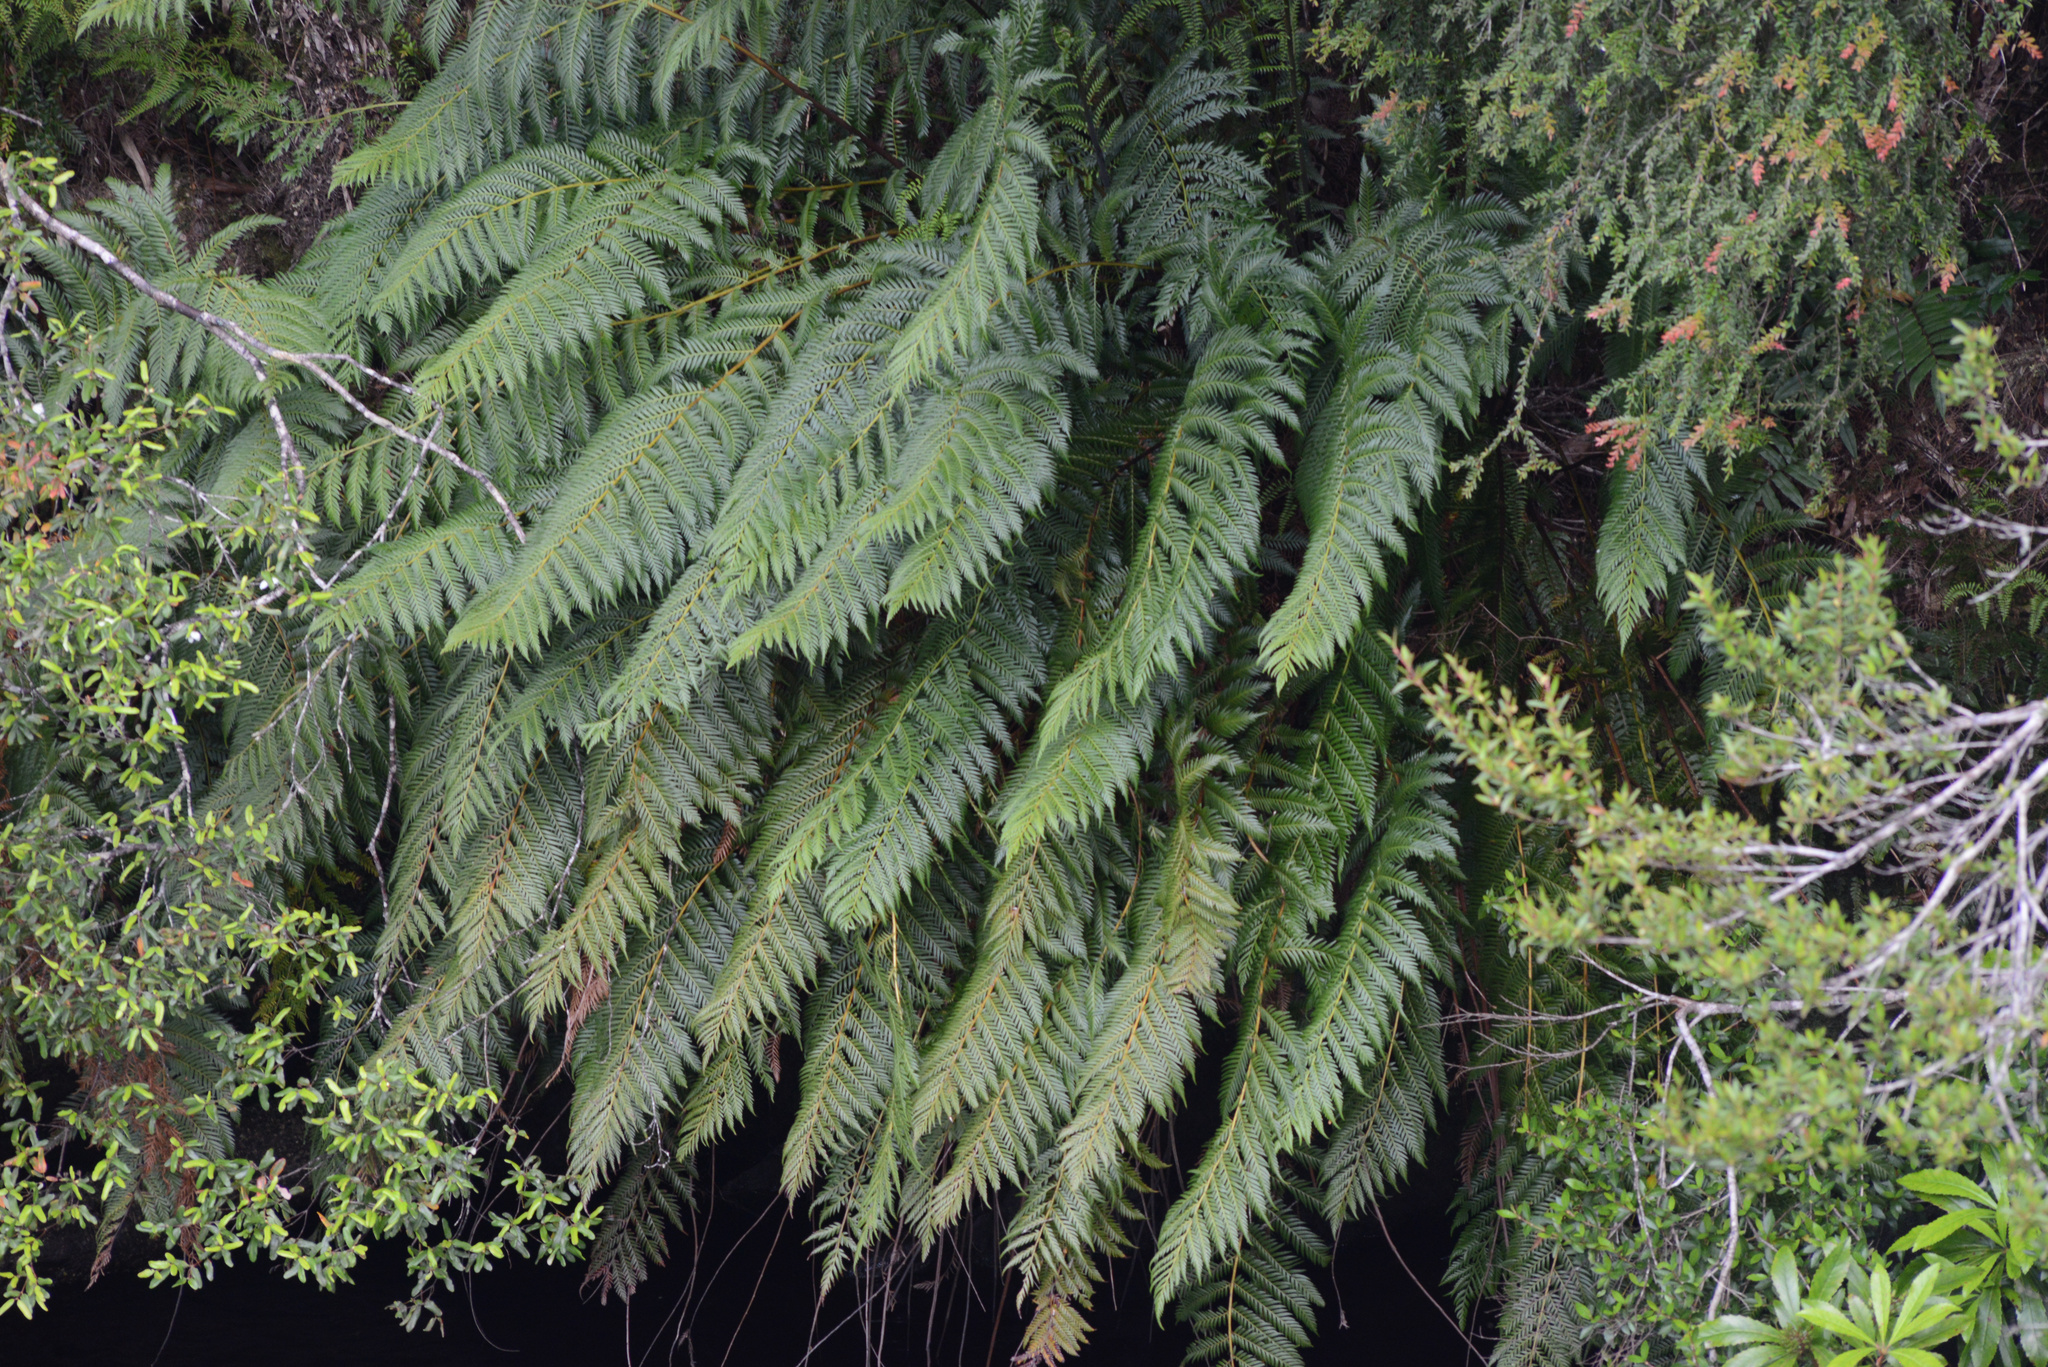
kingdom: Plantae
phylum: Tracheophyta
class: Polypodiopsida
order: Osmundales
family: Osmundaceae
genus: Todea
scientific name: Todea barbara
